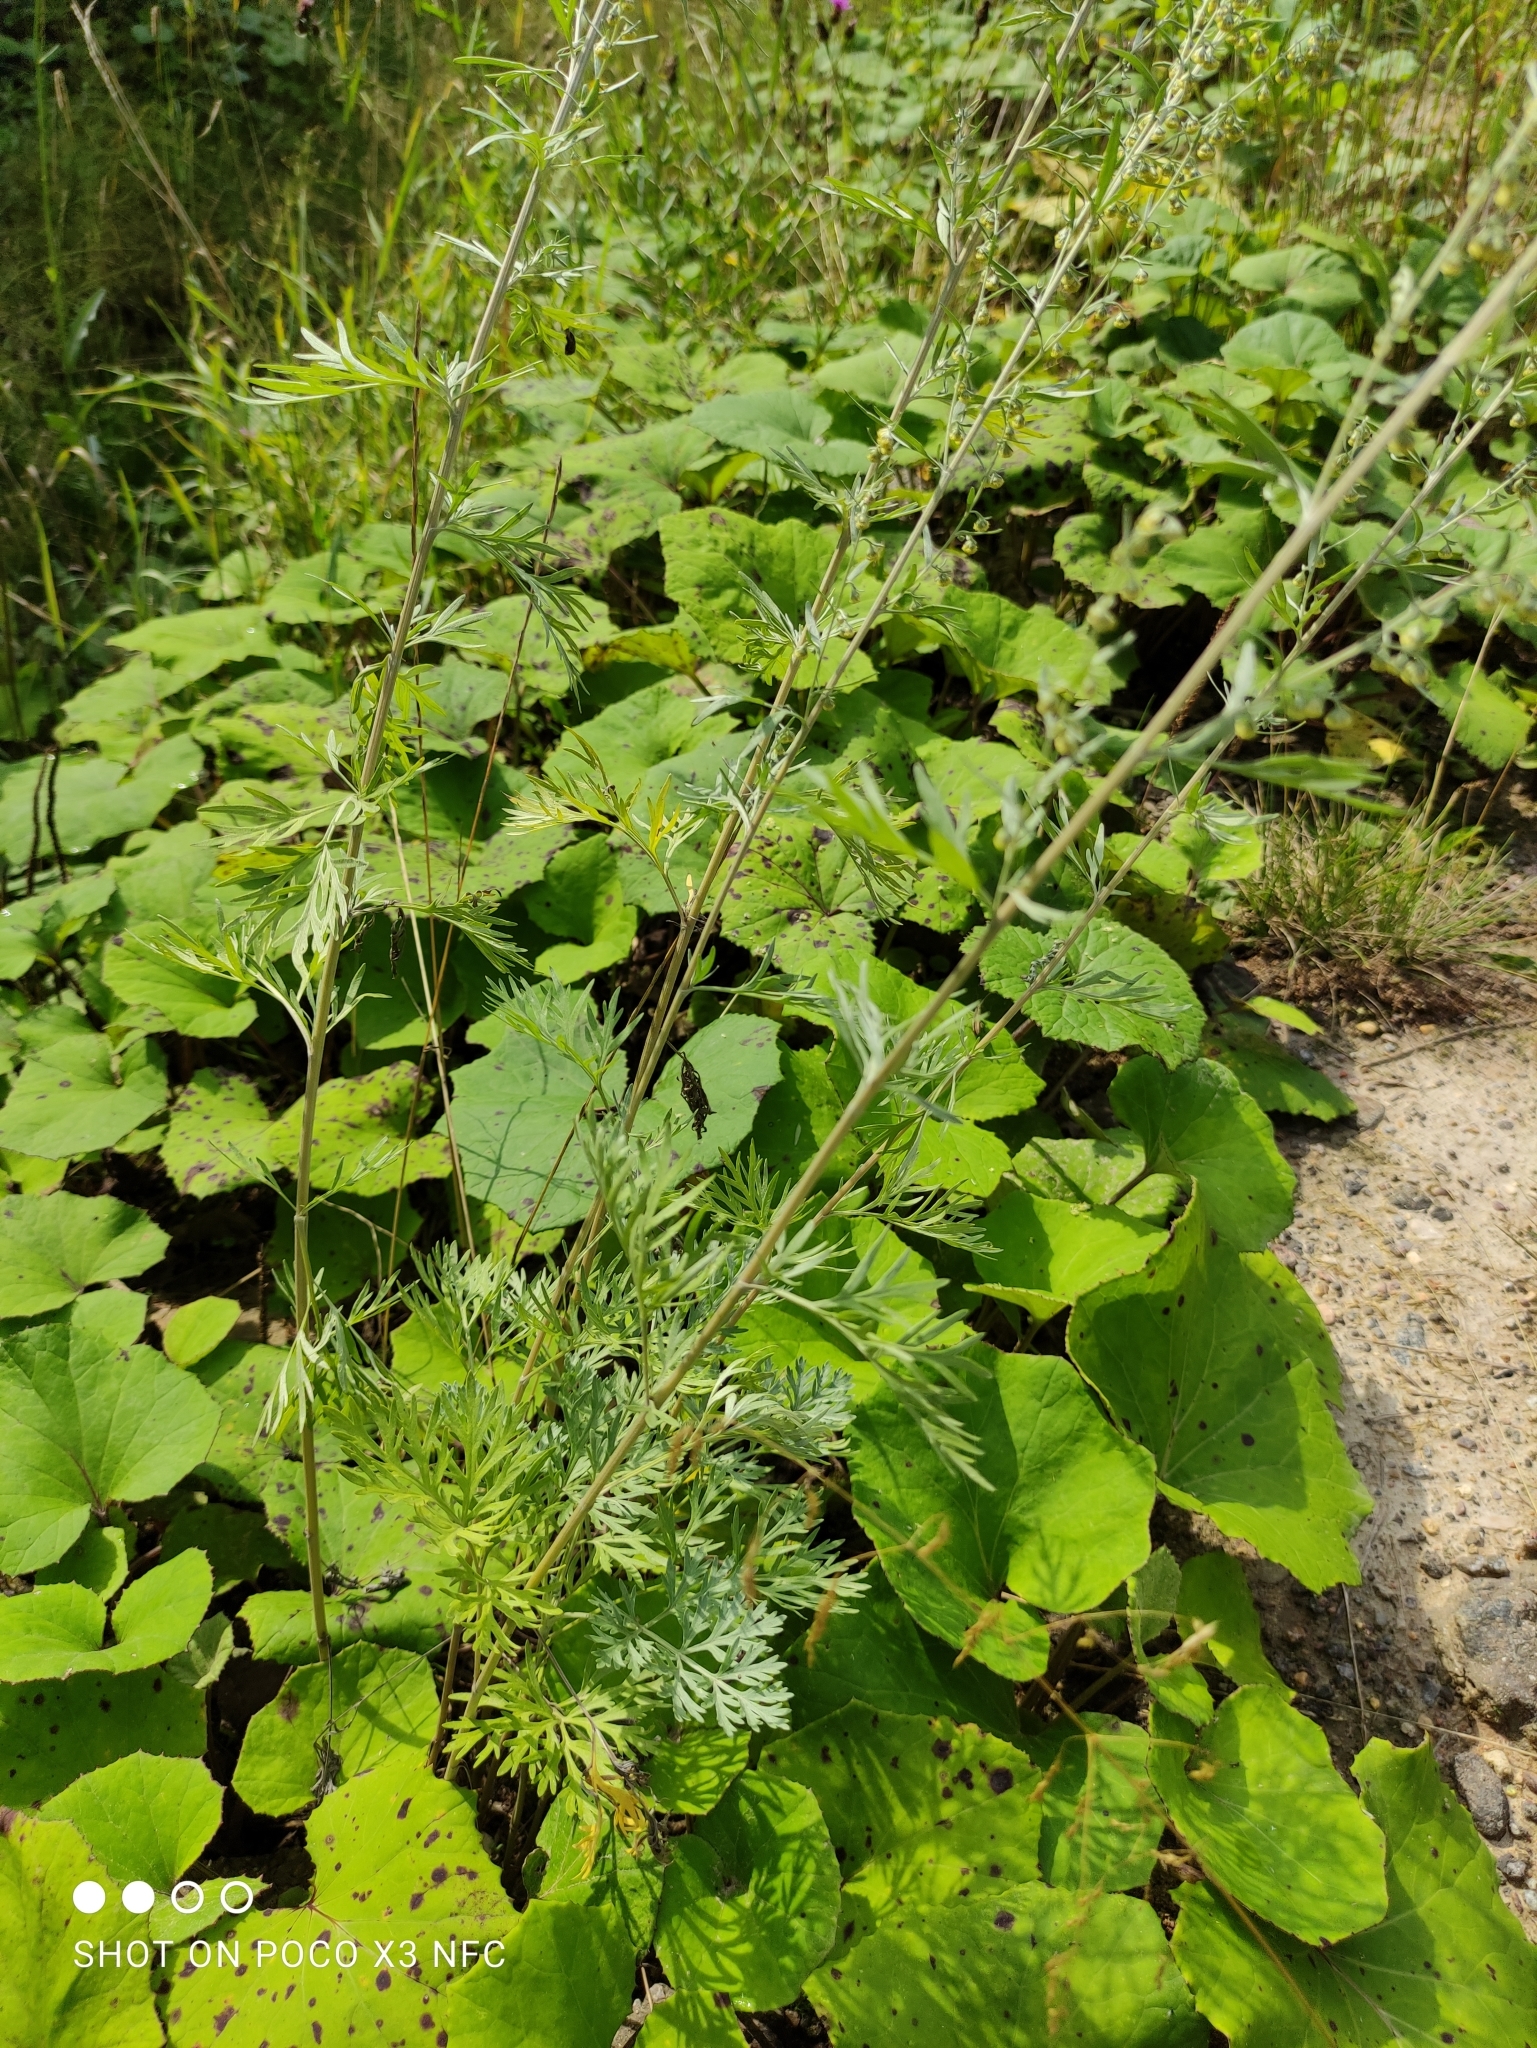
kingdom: Plantae
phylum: Tracheophyta
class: Magnoliopsida
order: Asterales
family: Asteraceae
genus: Artemisia
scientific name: Artemisia absinthium
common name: Wormwood
